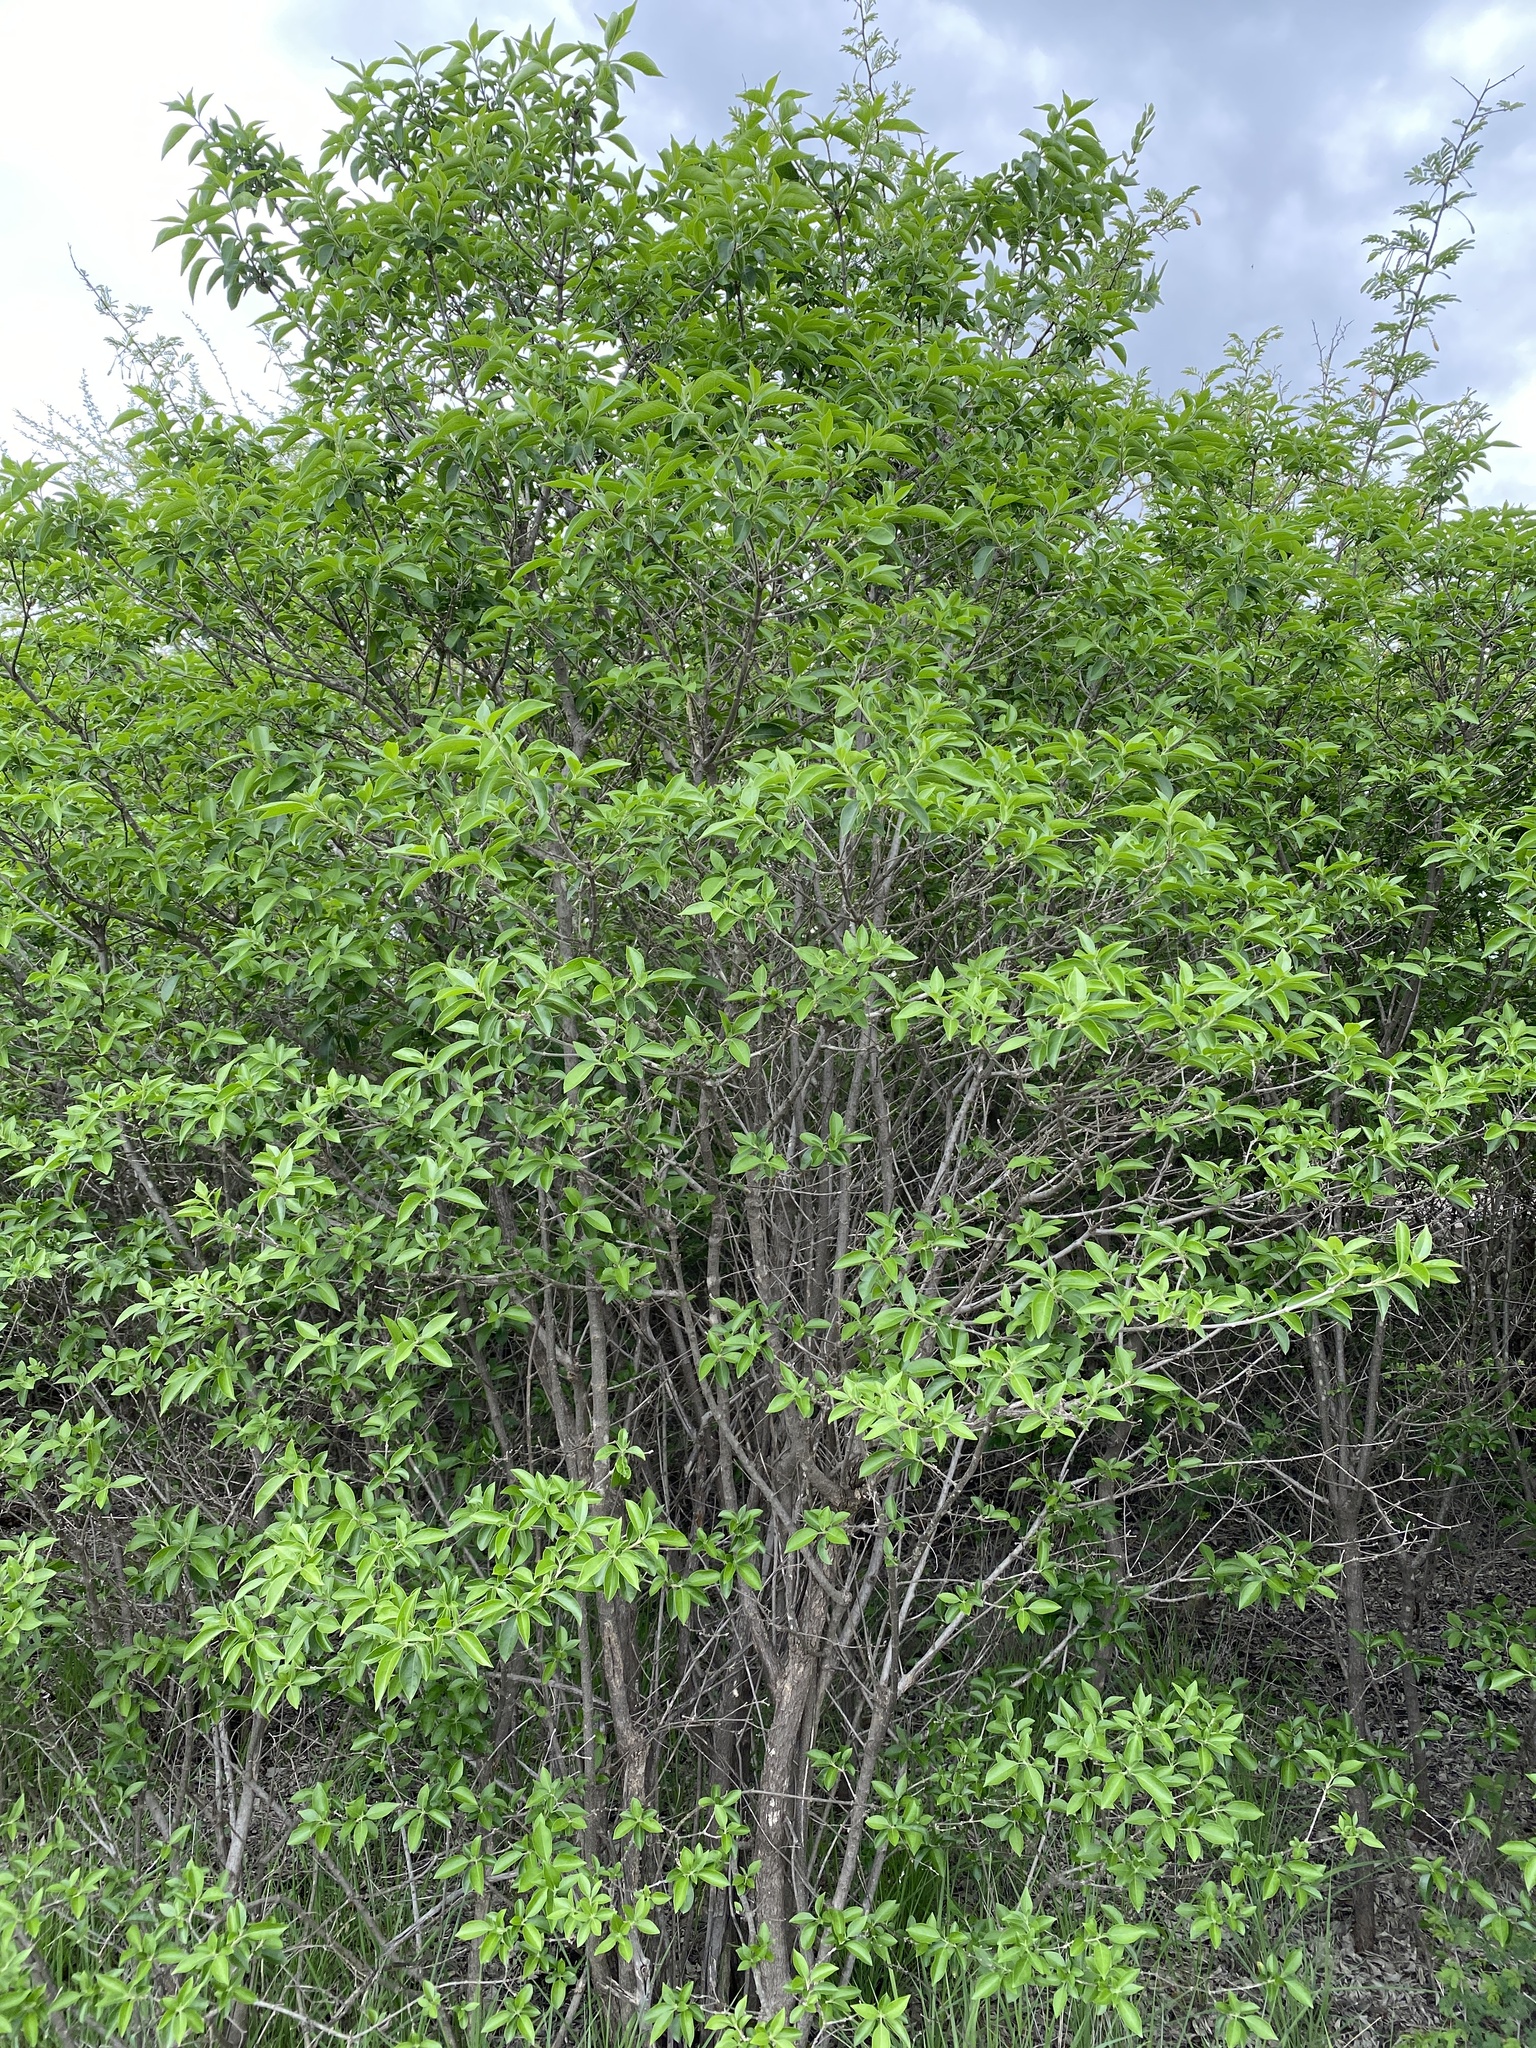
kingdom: Plantae
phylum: Tracheophyta
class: Magnoliopsida
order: Lamiales
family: Lamiaceae
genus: Volkameria
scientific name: Volkameria glabra
